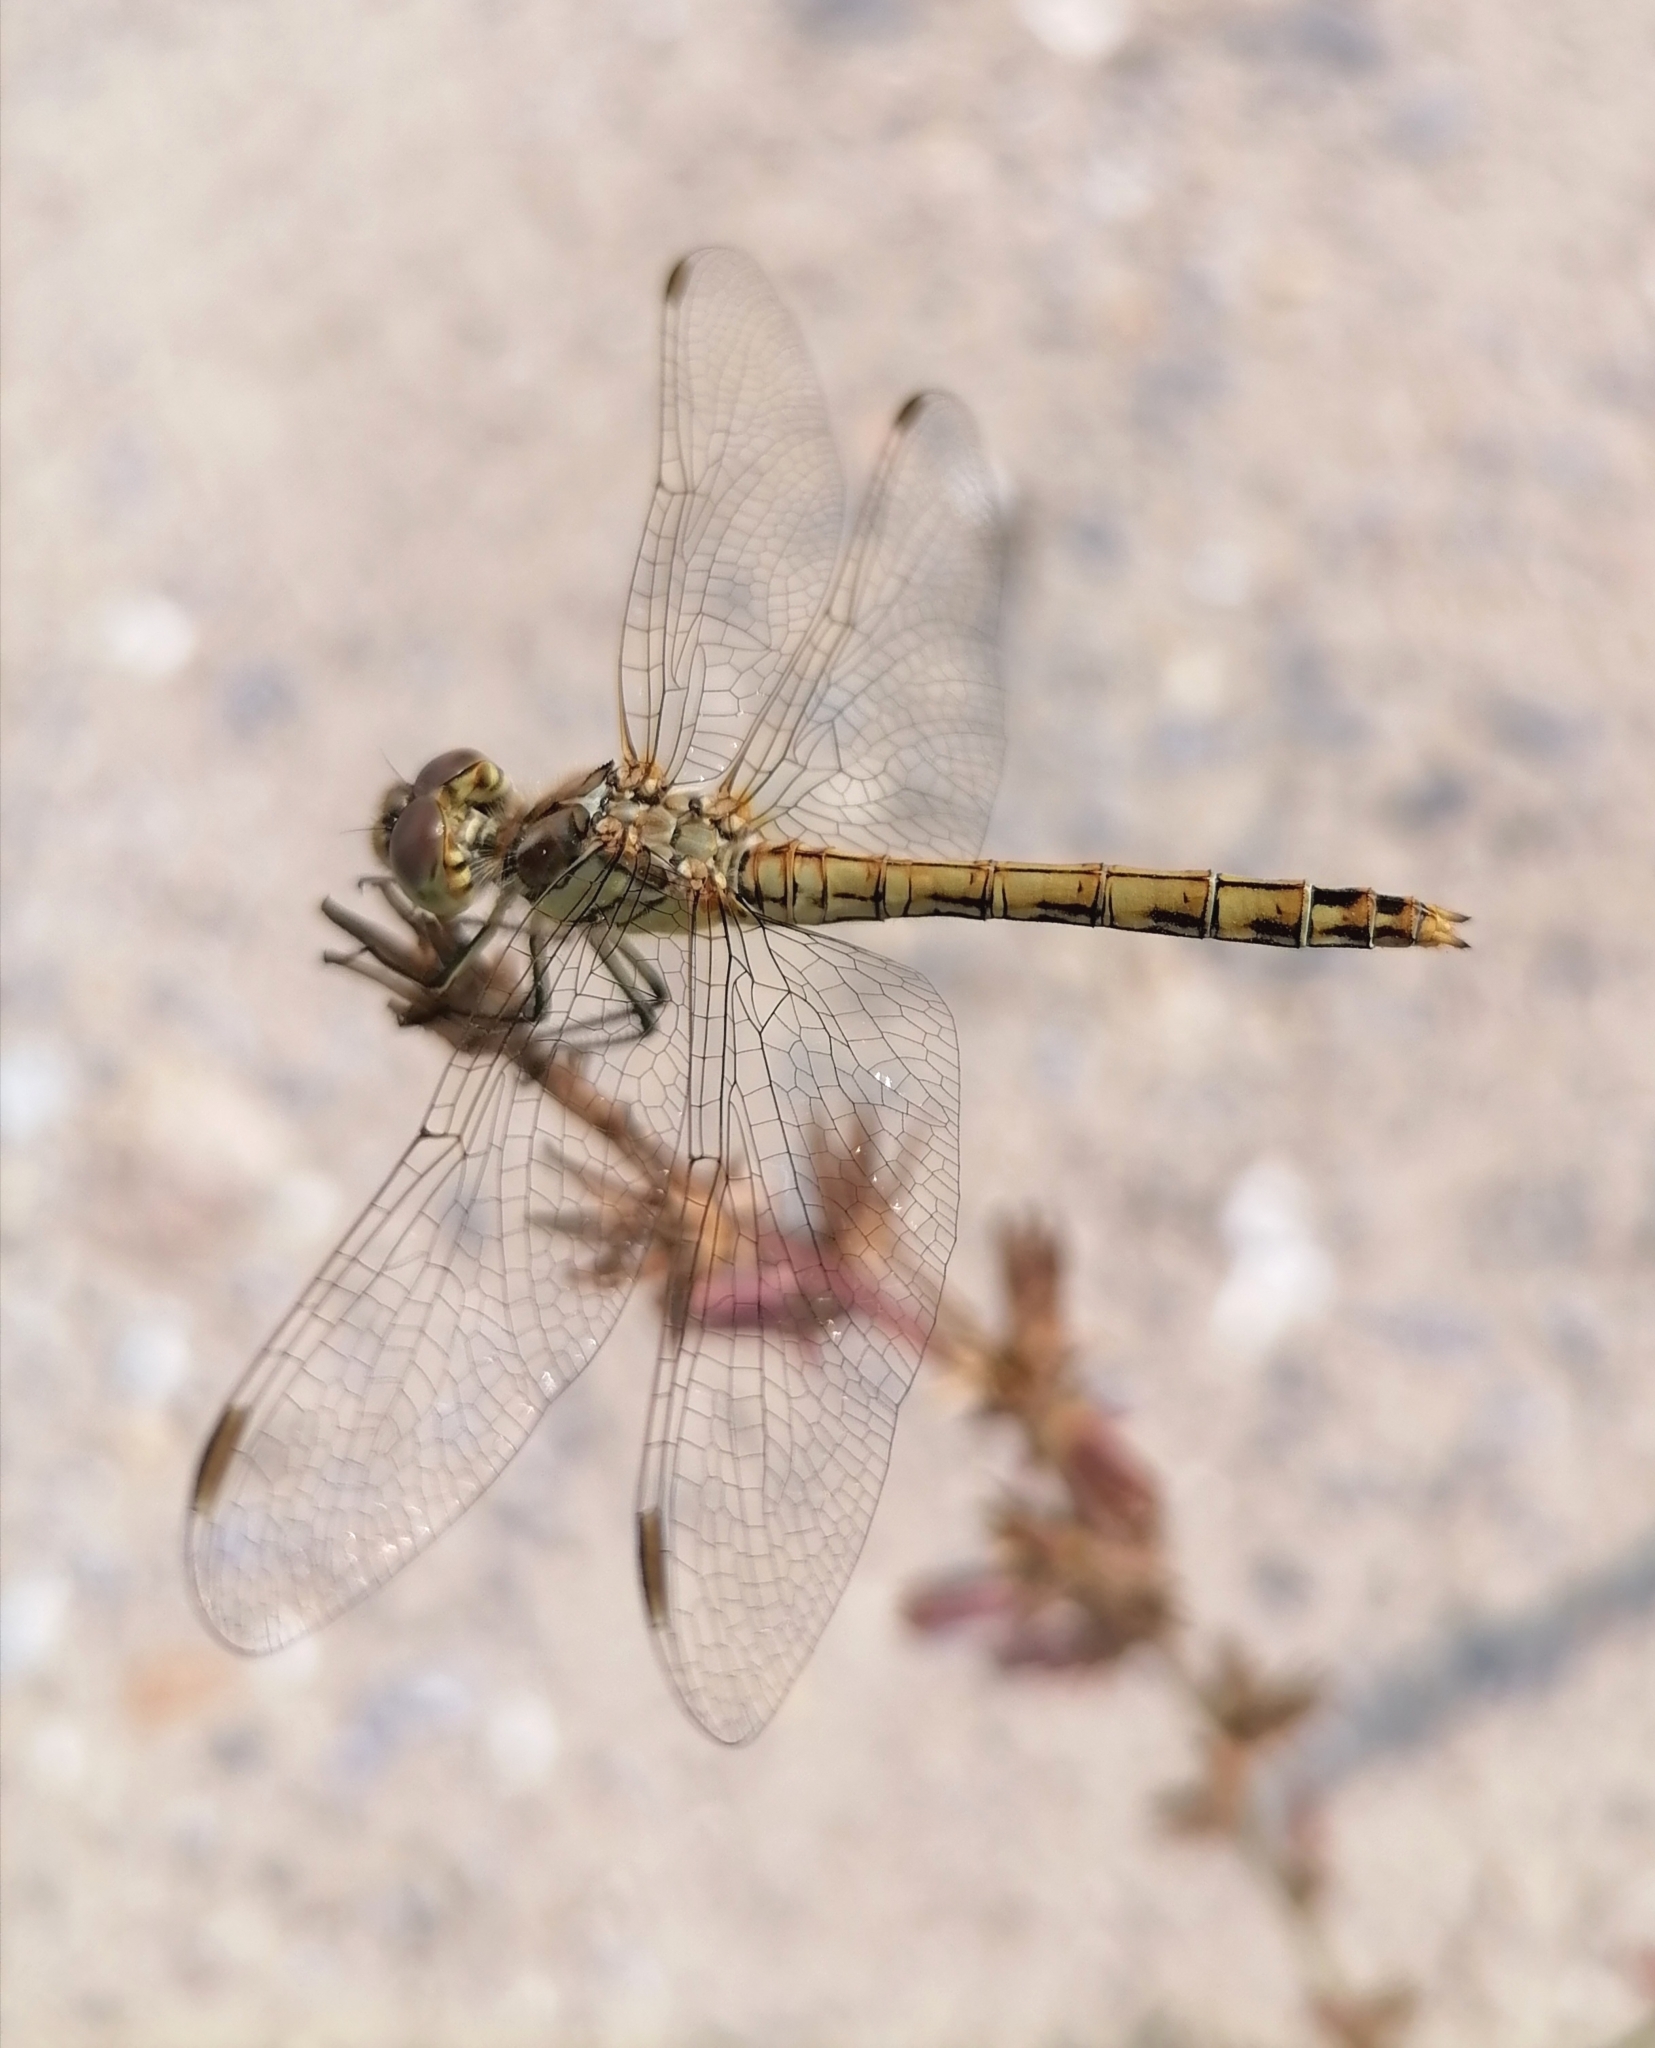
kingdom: Animalia
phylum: Arthropoda
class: Insecta
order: Odonata
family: Libellulidae
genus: Sympetrum
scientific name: Sympetrum vulgatum
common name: Vagrant darter
